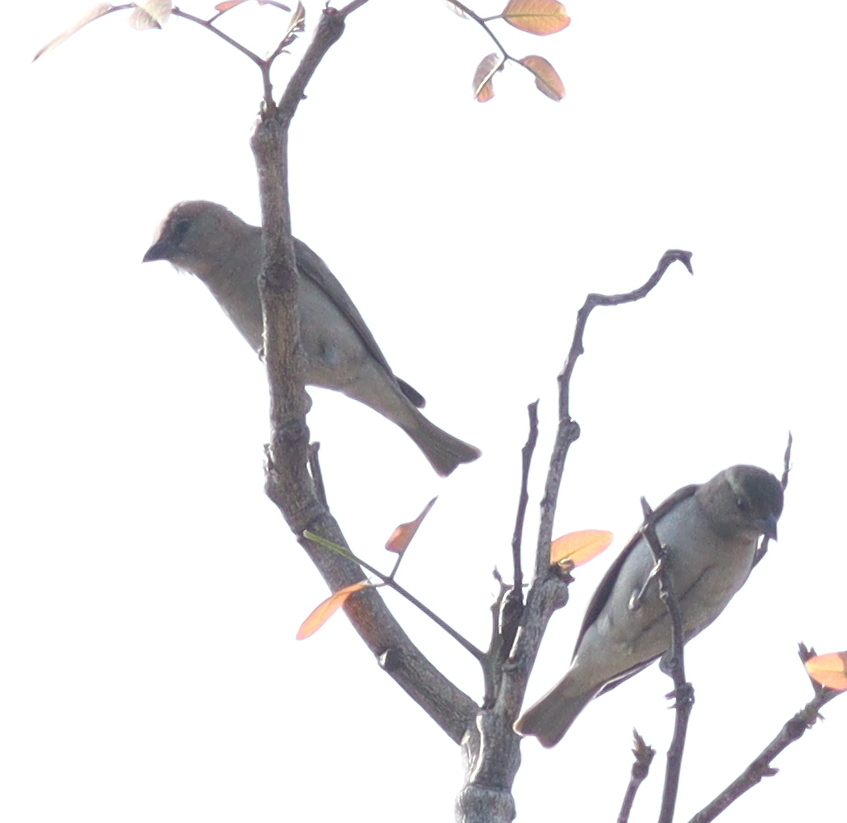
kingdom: Animalia
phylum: Chordata
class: Aves
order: Passeriformes
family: Passeridae
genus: Gymnoris
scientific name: Gymnoris dentata
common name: Bush petronia
